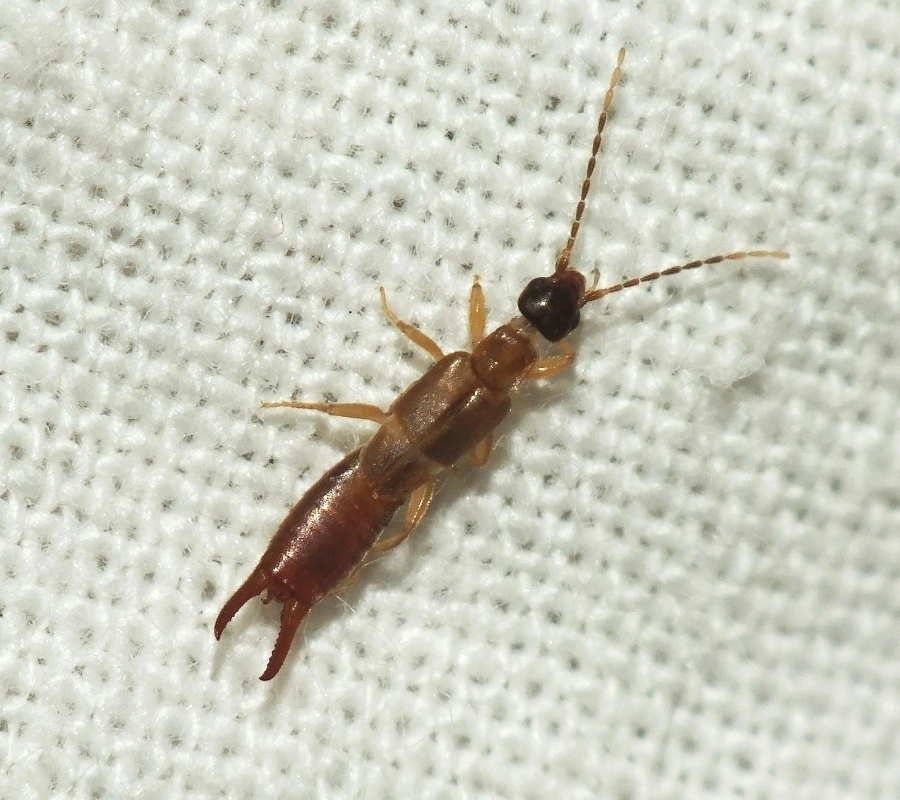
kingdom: Animalia
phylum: Arthropoda
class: Insecta
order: Dermaptera
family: Spongiphoridae
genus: Labia
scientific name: Labia minor
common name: Lesser earwig
